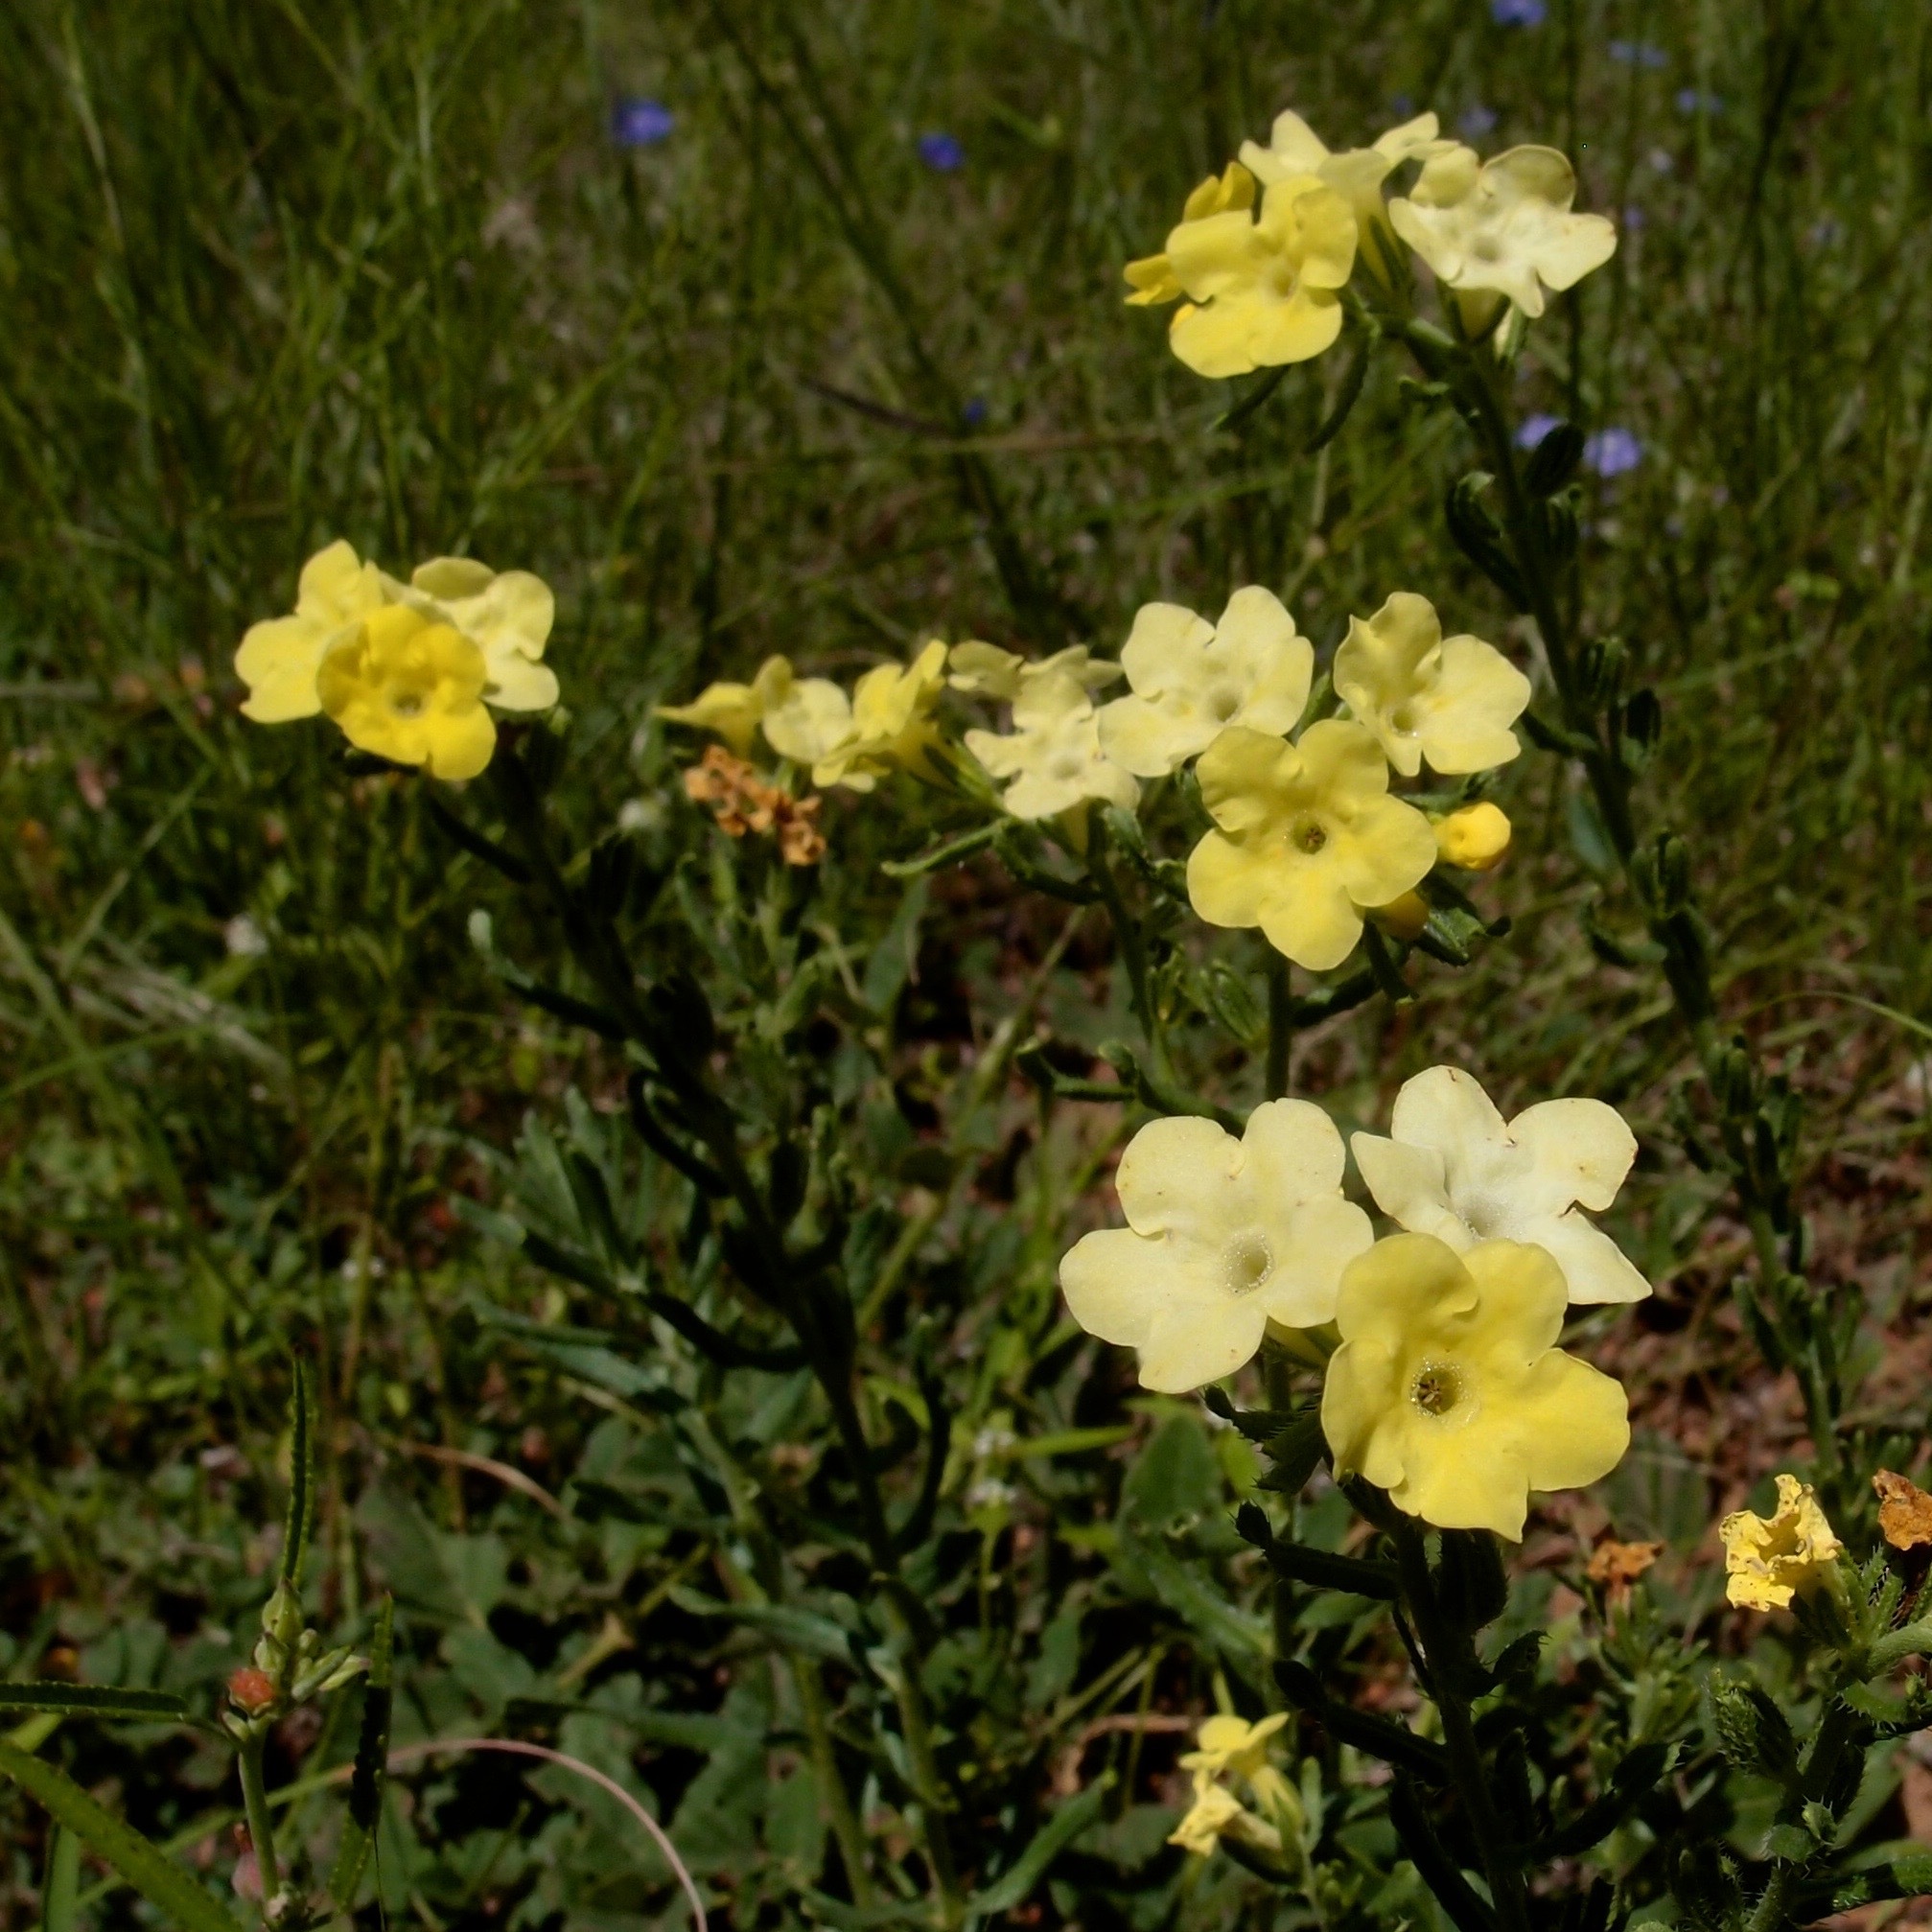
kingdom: Plantae
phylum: Tracheophyta
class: Magnoliopsida
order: Boraginales
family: Boraginaceae
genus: Lithospermum
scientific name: Lithospermum cobrense
